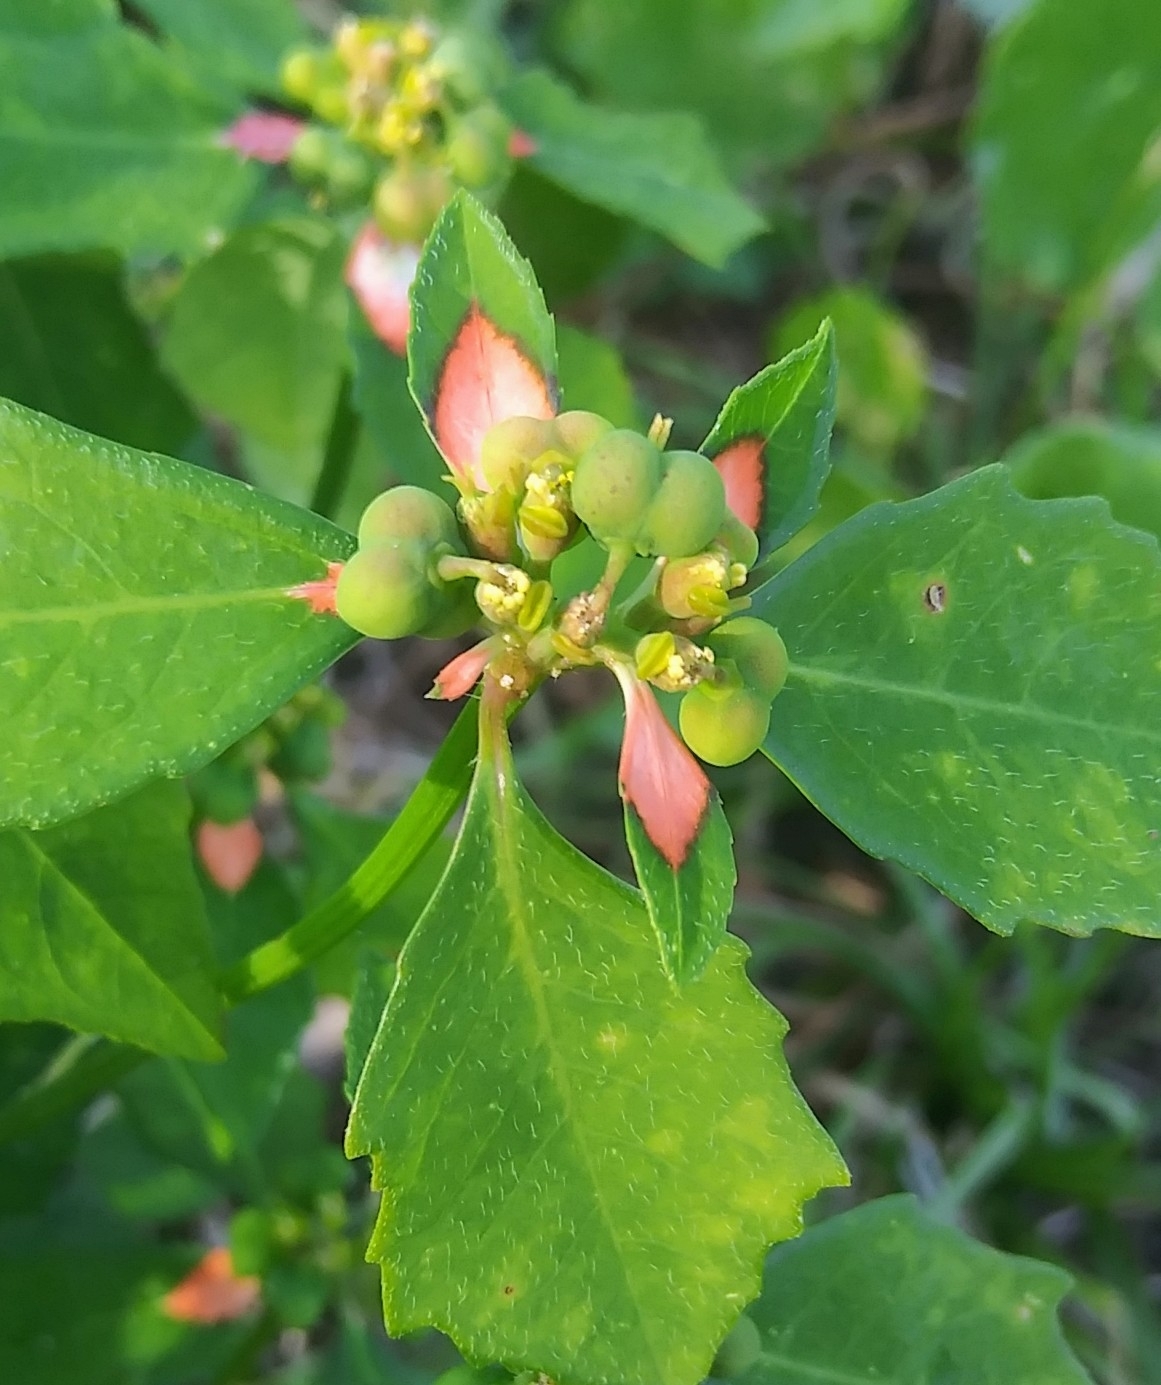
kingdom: Plantae
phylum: Tracheophyta
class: Magnoliopsida
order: Malpighiales
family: Euphorbiaceae
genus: Euphorbia
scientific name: Euphorbia heterophylla
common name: Mexican fireplant
